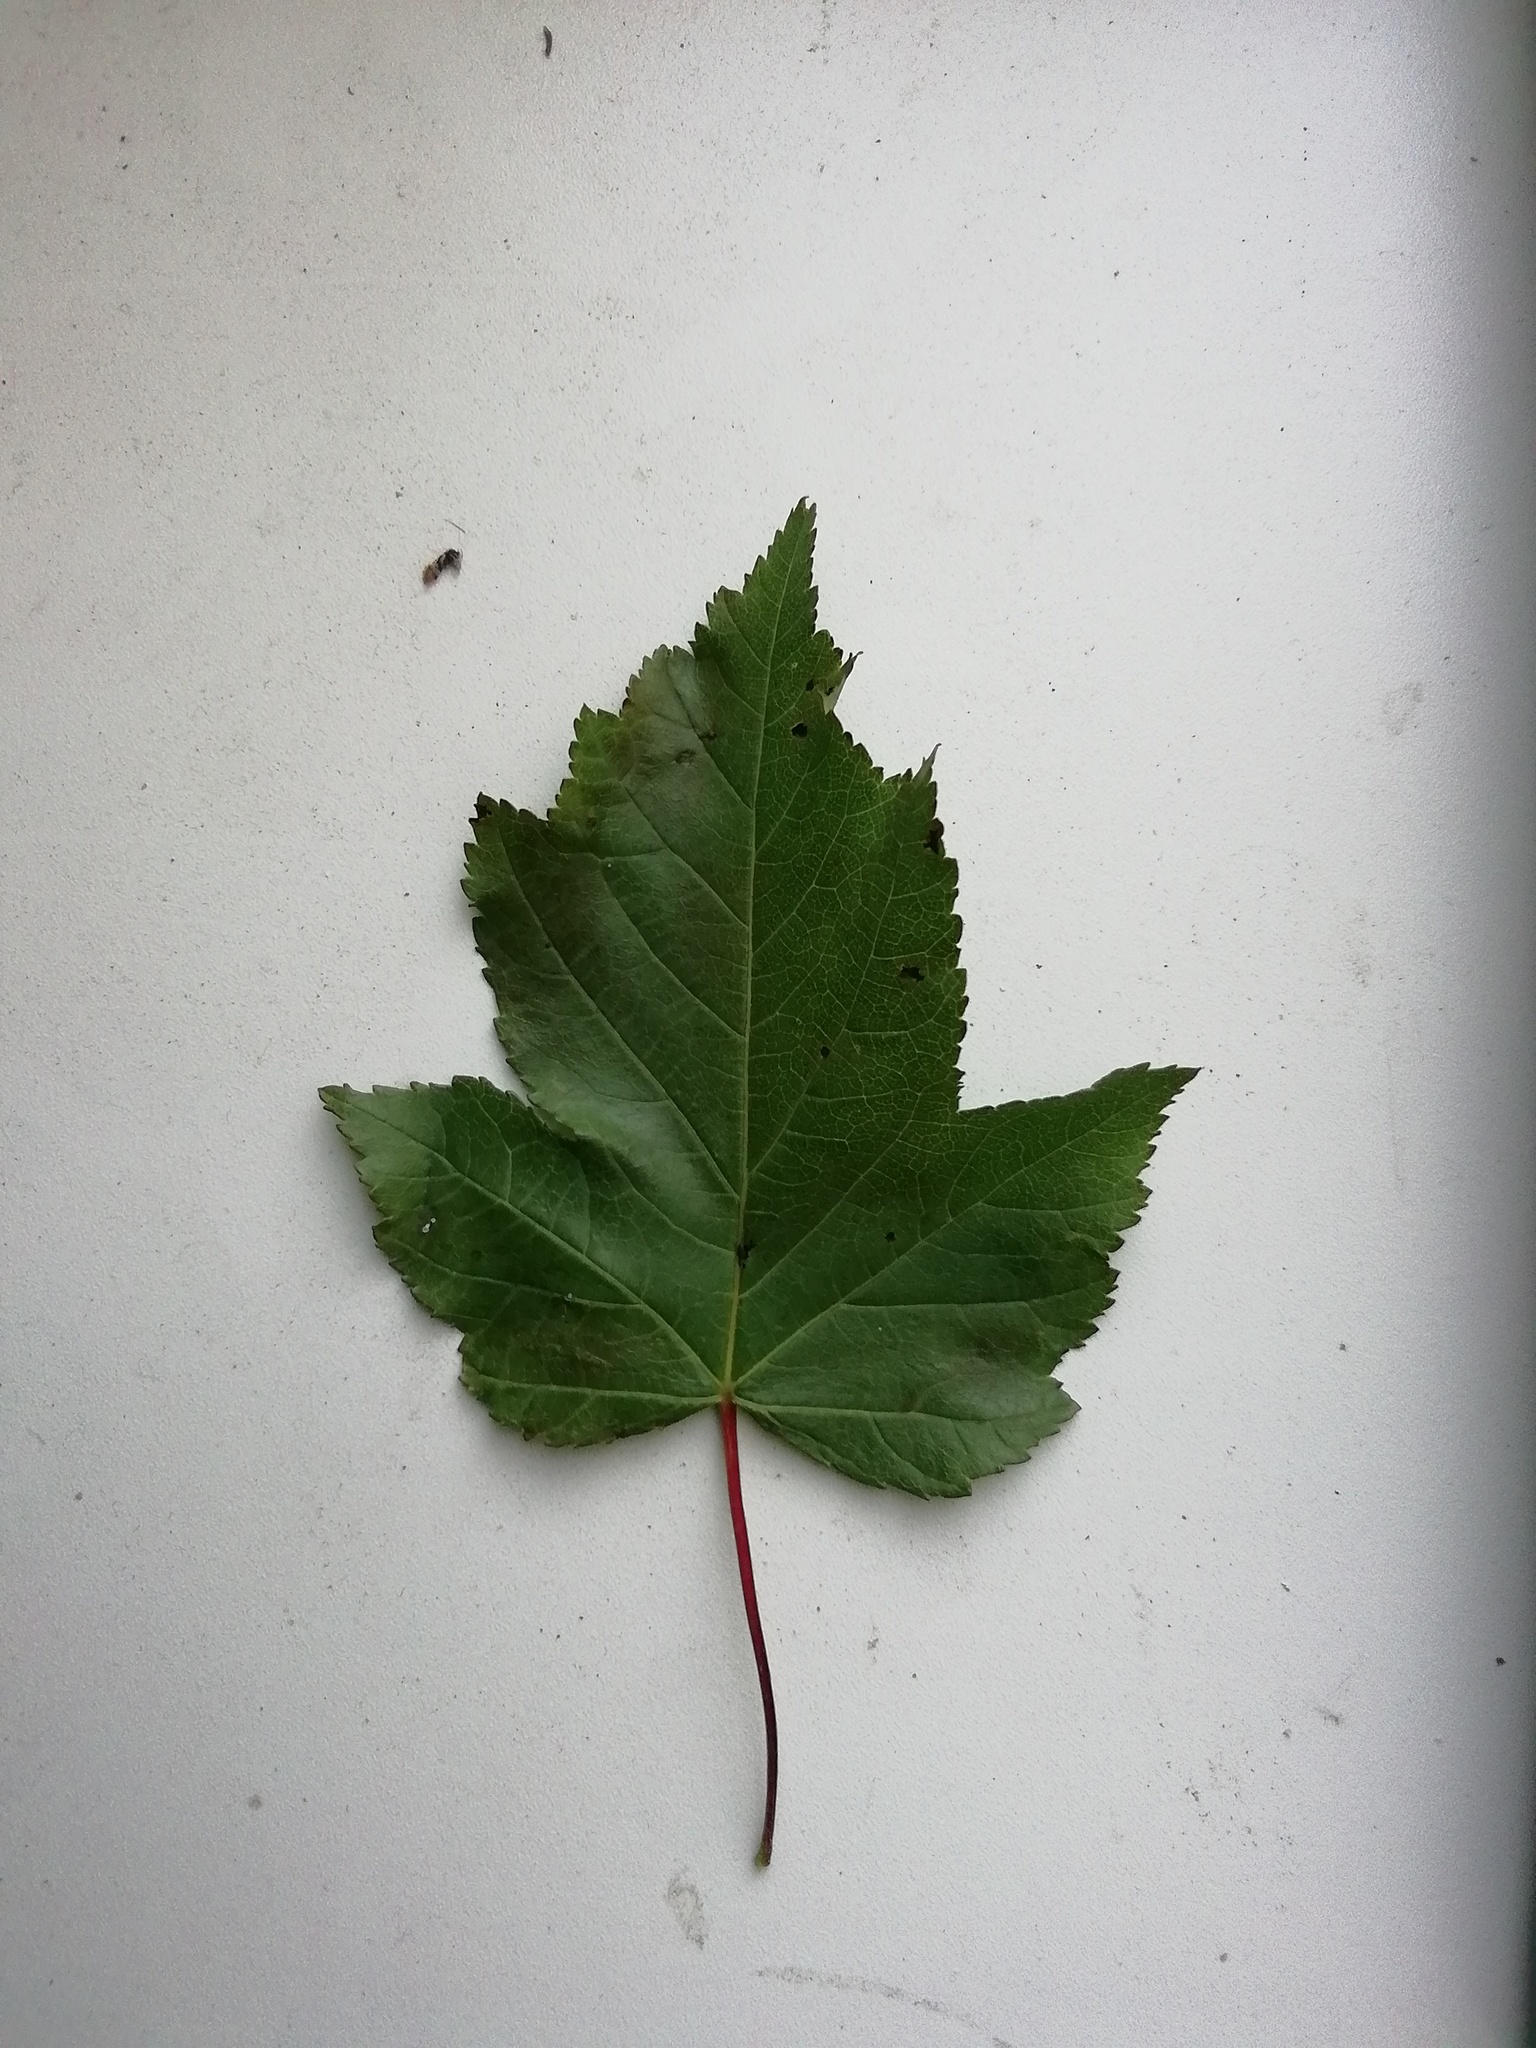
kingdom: Plantae
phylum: Tracheophyta
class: Magnoliopsida
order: Sapindales
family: Sapindaceae
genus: Acer
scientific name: Acer tataricum
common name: Tartar maple
